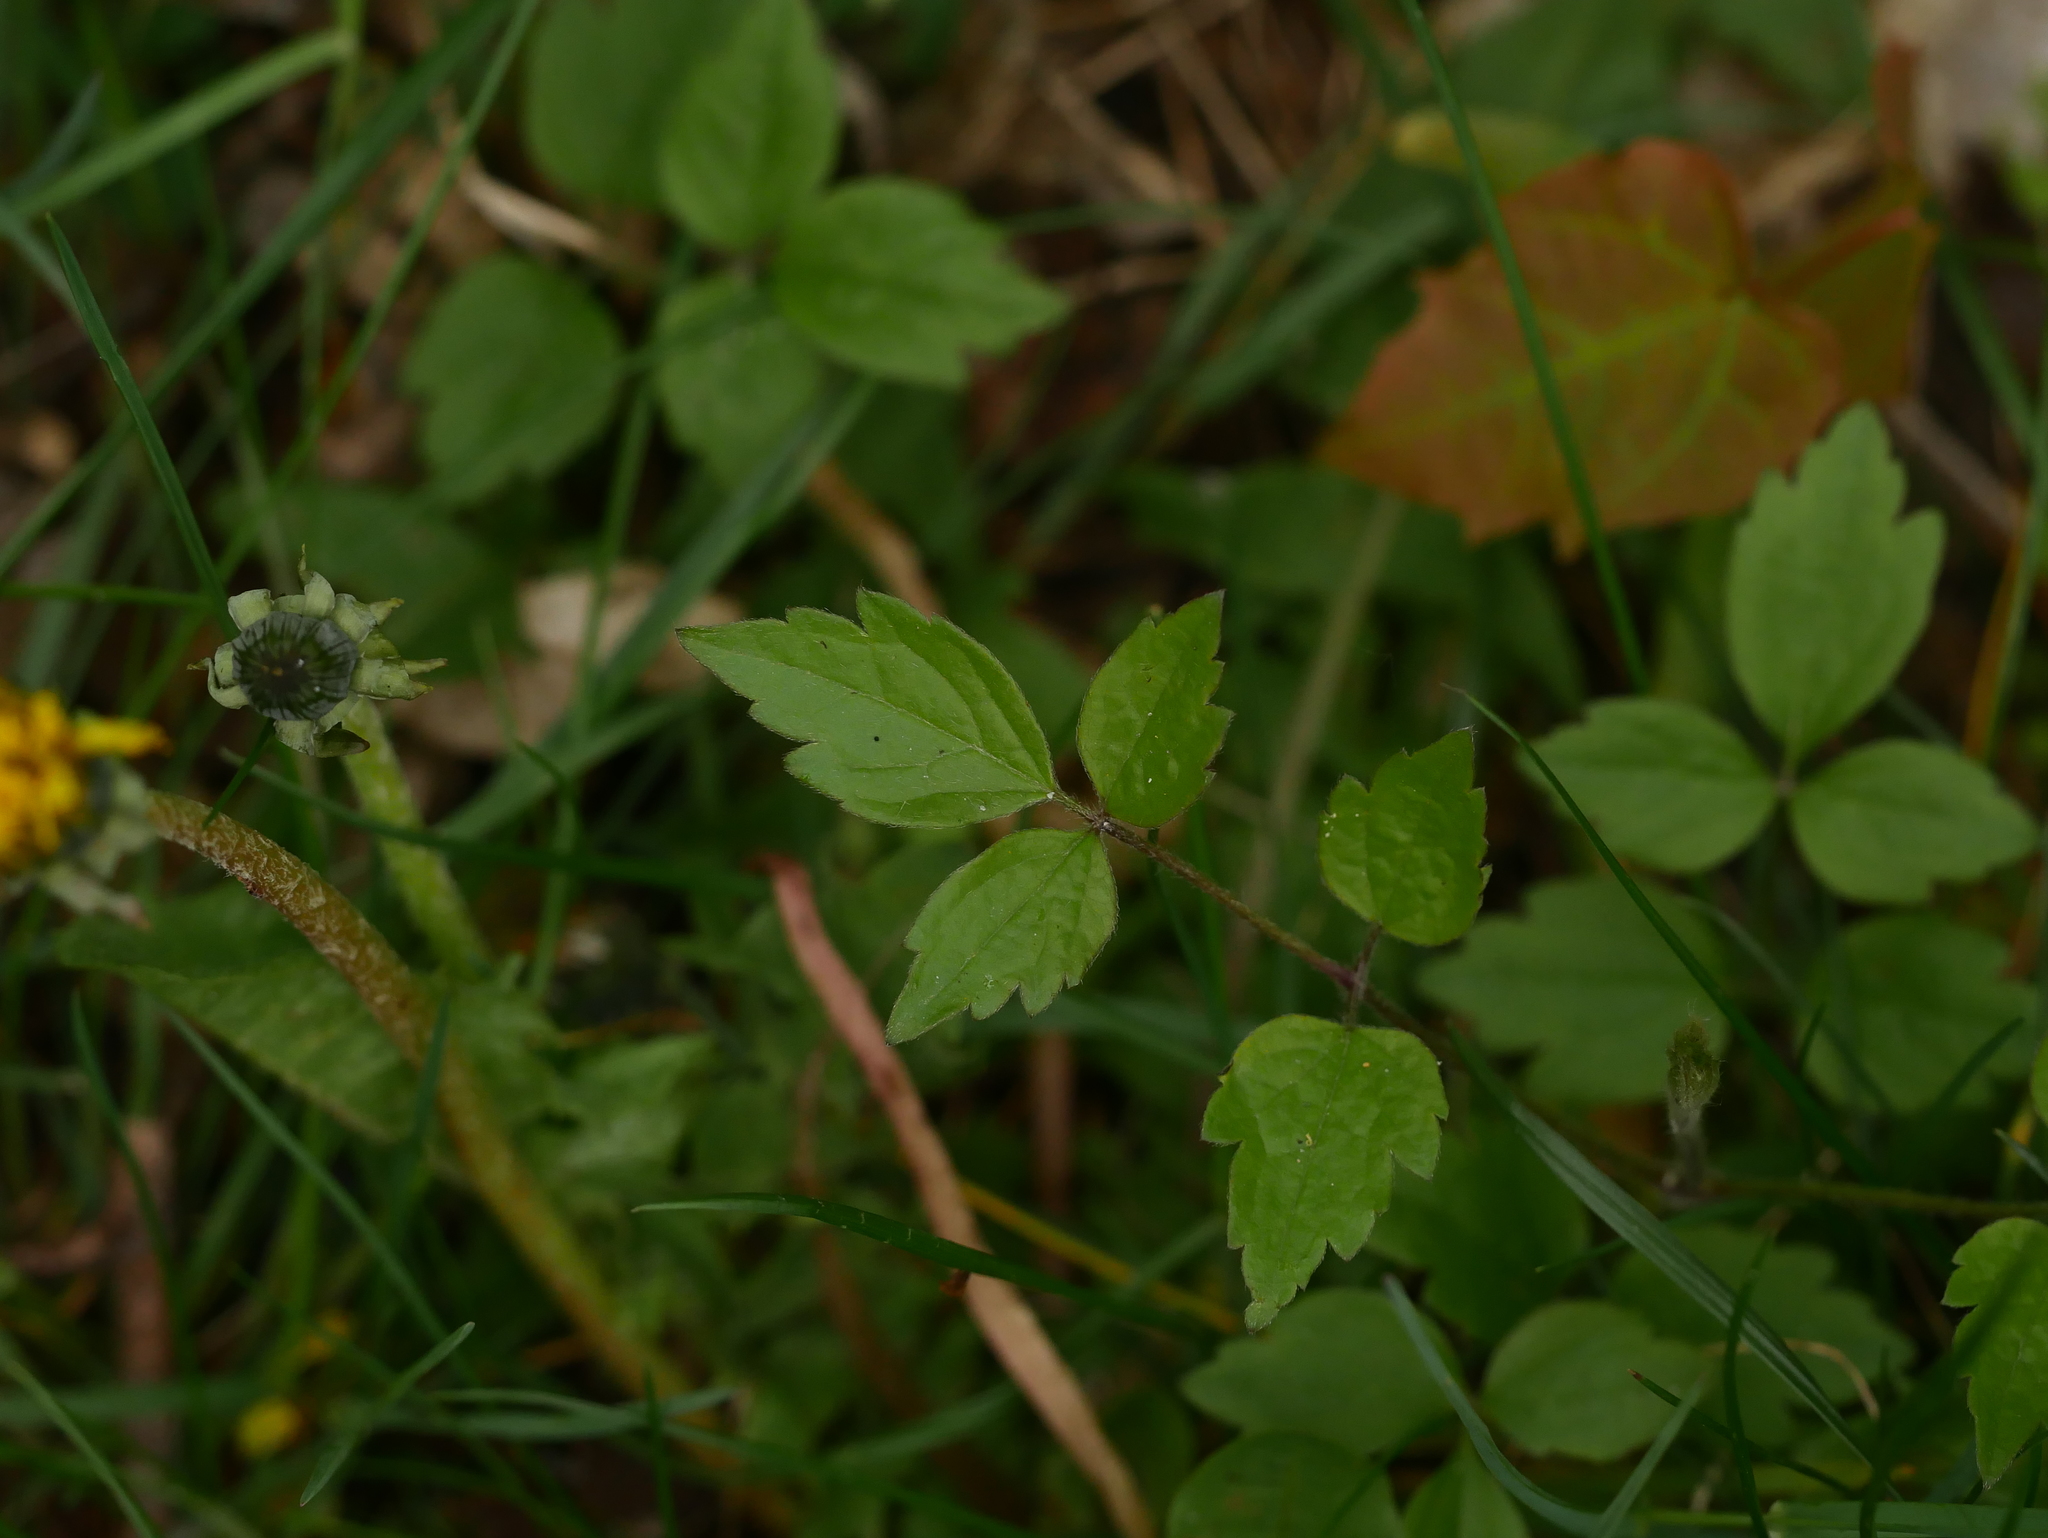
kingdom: Plantae
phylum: Tracheophyta
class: Magnoliopsida
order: Ranunculales
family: Ranunculaceae
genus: Clematis
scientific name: Clematis vitalba
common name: Evergreen clematis
